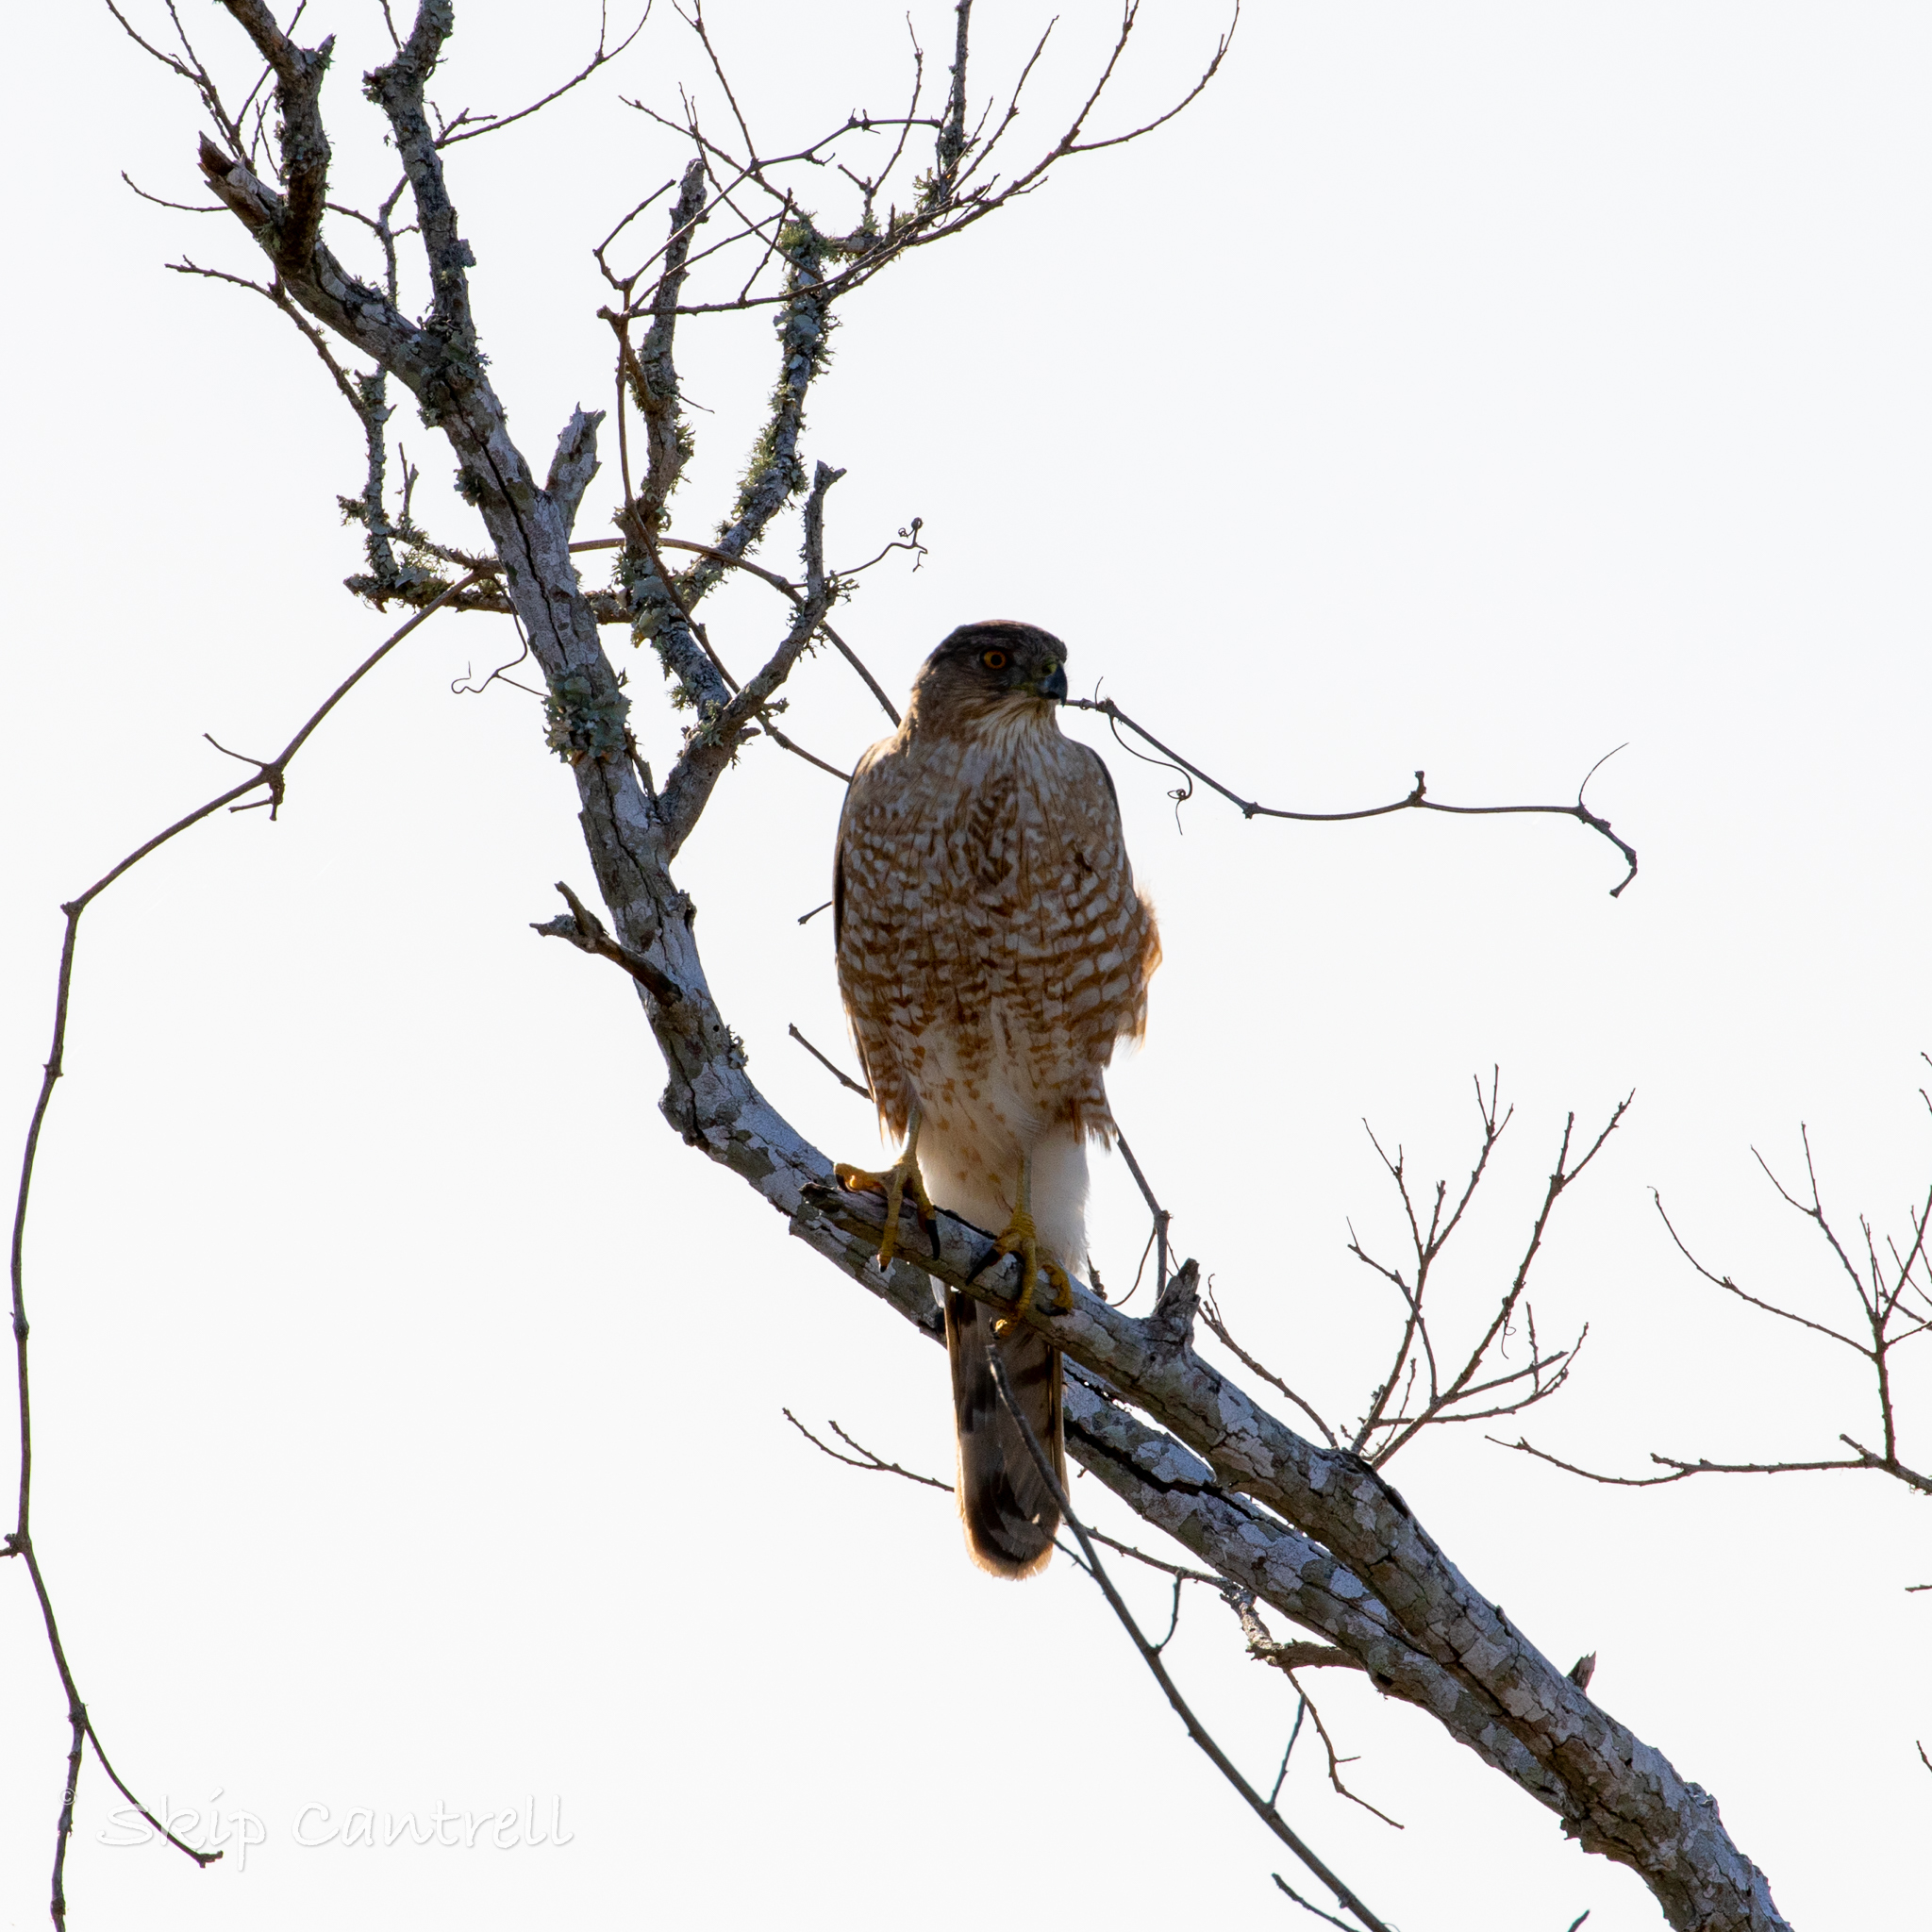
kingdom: Animalia
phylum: Chordata
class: Aves
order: Accipitriformes
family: Accipitridae
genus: Accipiter
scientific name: Accipiter cooperii
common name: Cooper's hawk
